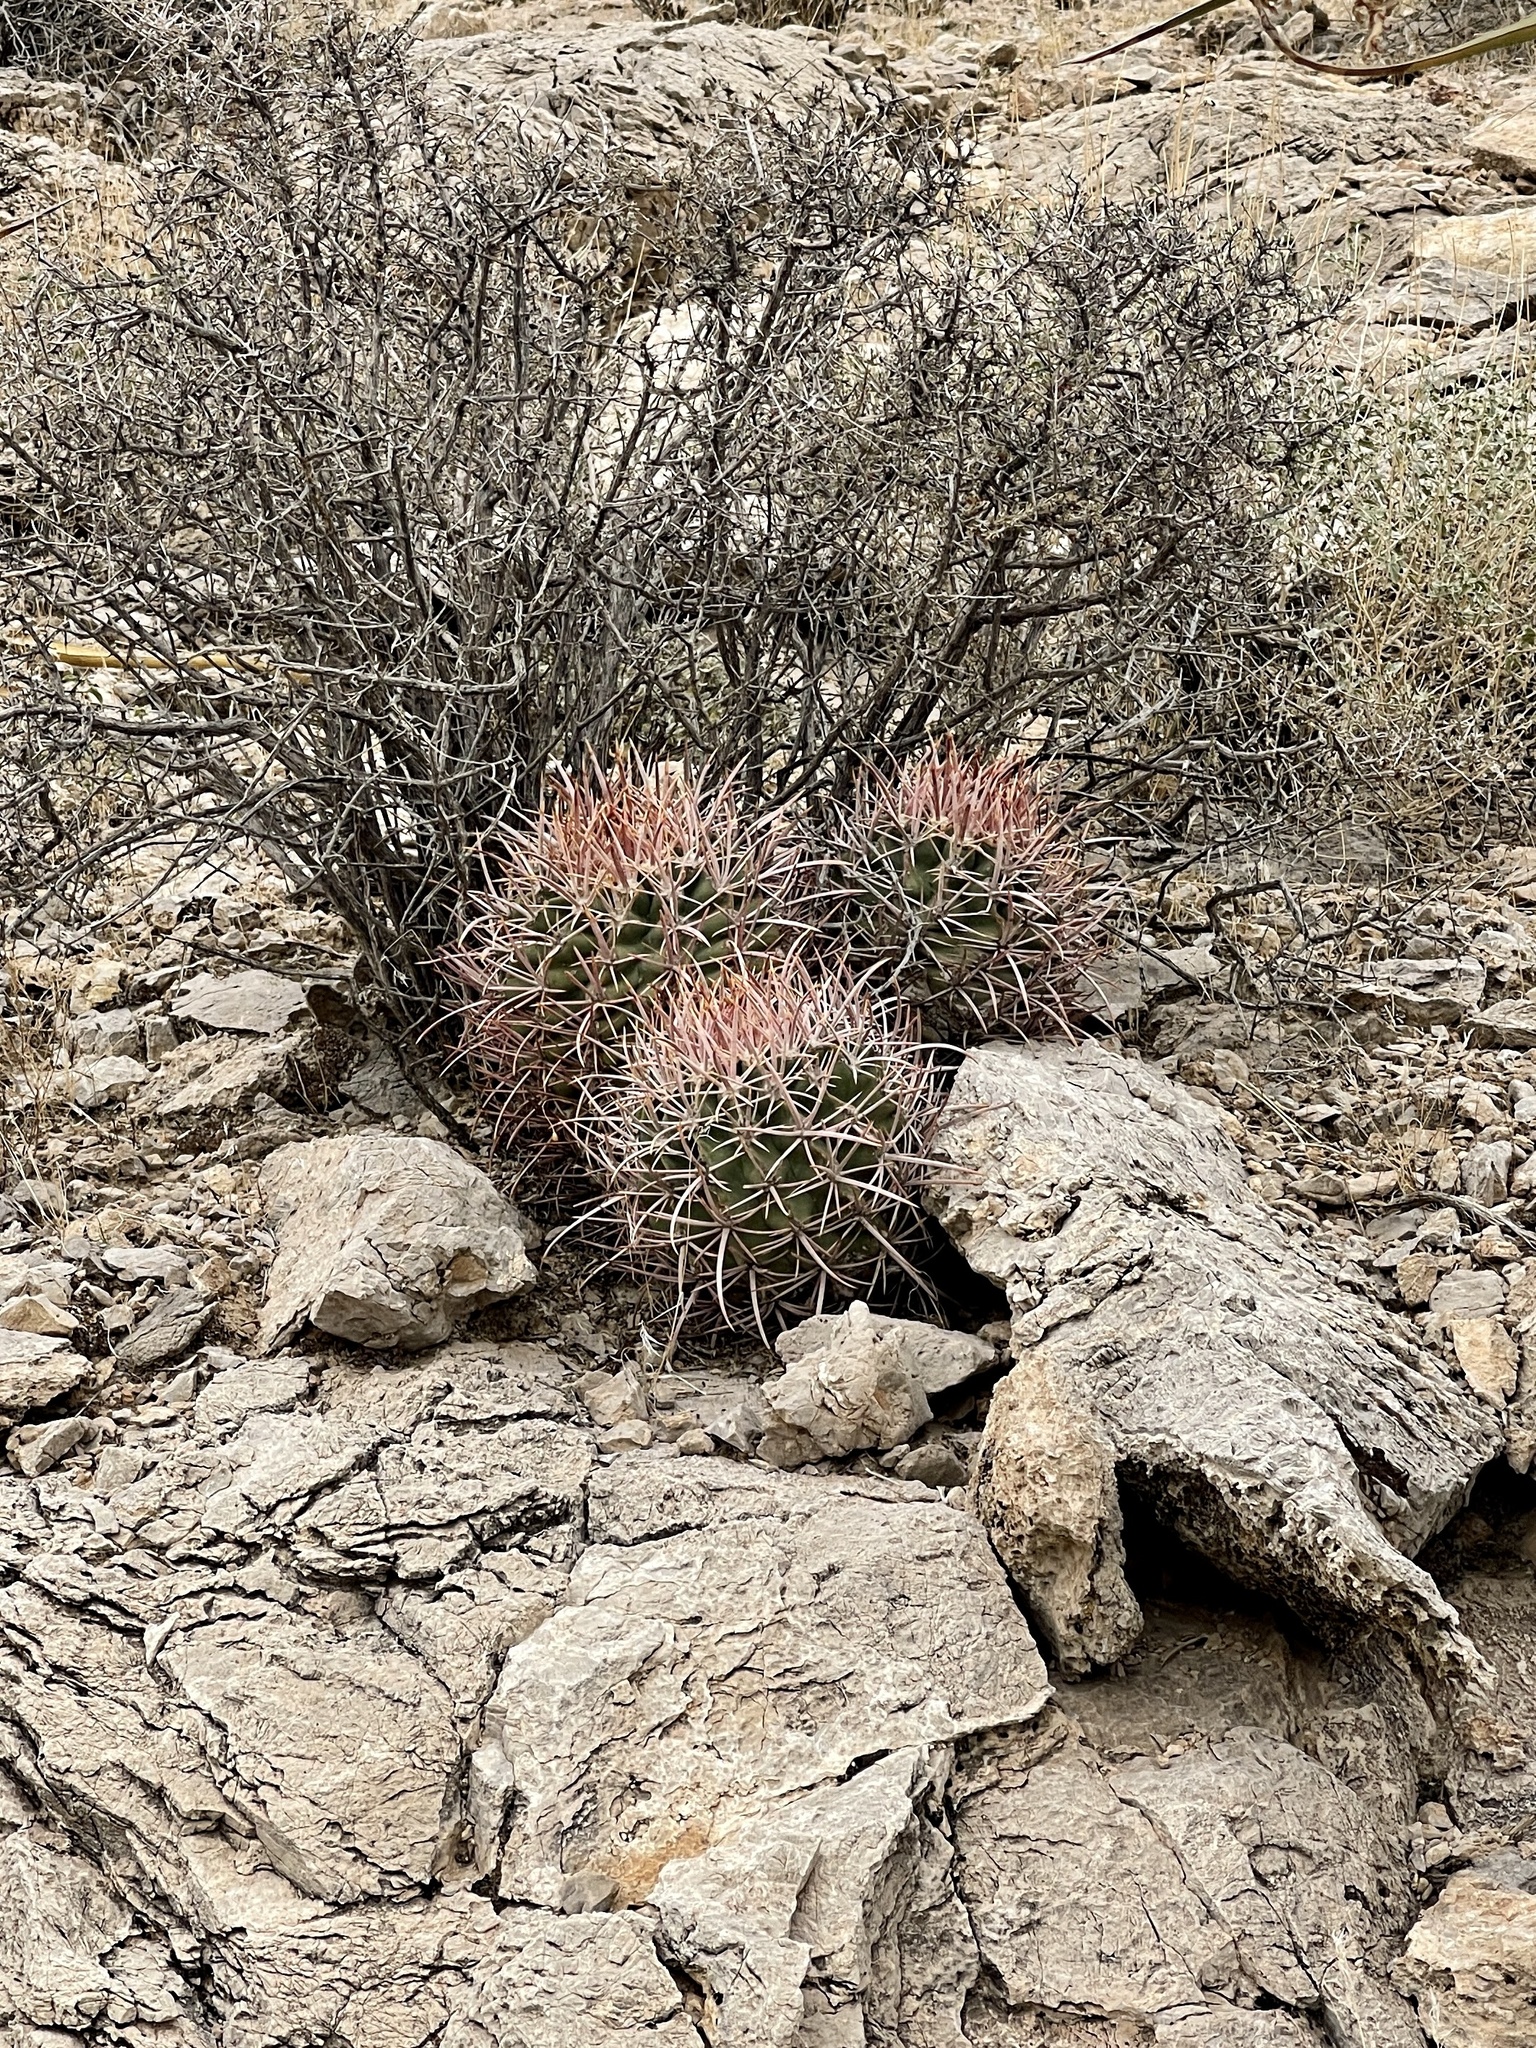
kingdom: Plantae
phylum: Tracheophyta
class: Magnoliopsida
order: Caryophyllales
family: Cactaceae
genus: Echinocactus
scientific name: Echinocactus polycephalus
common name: Cottontop cactus
